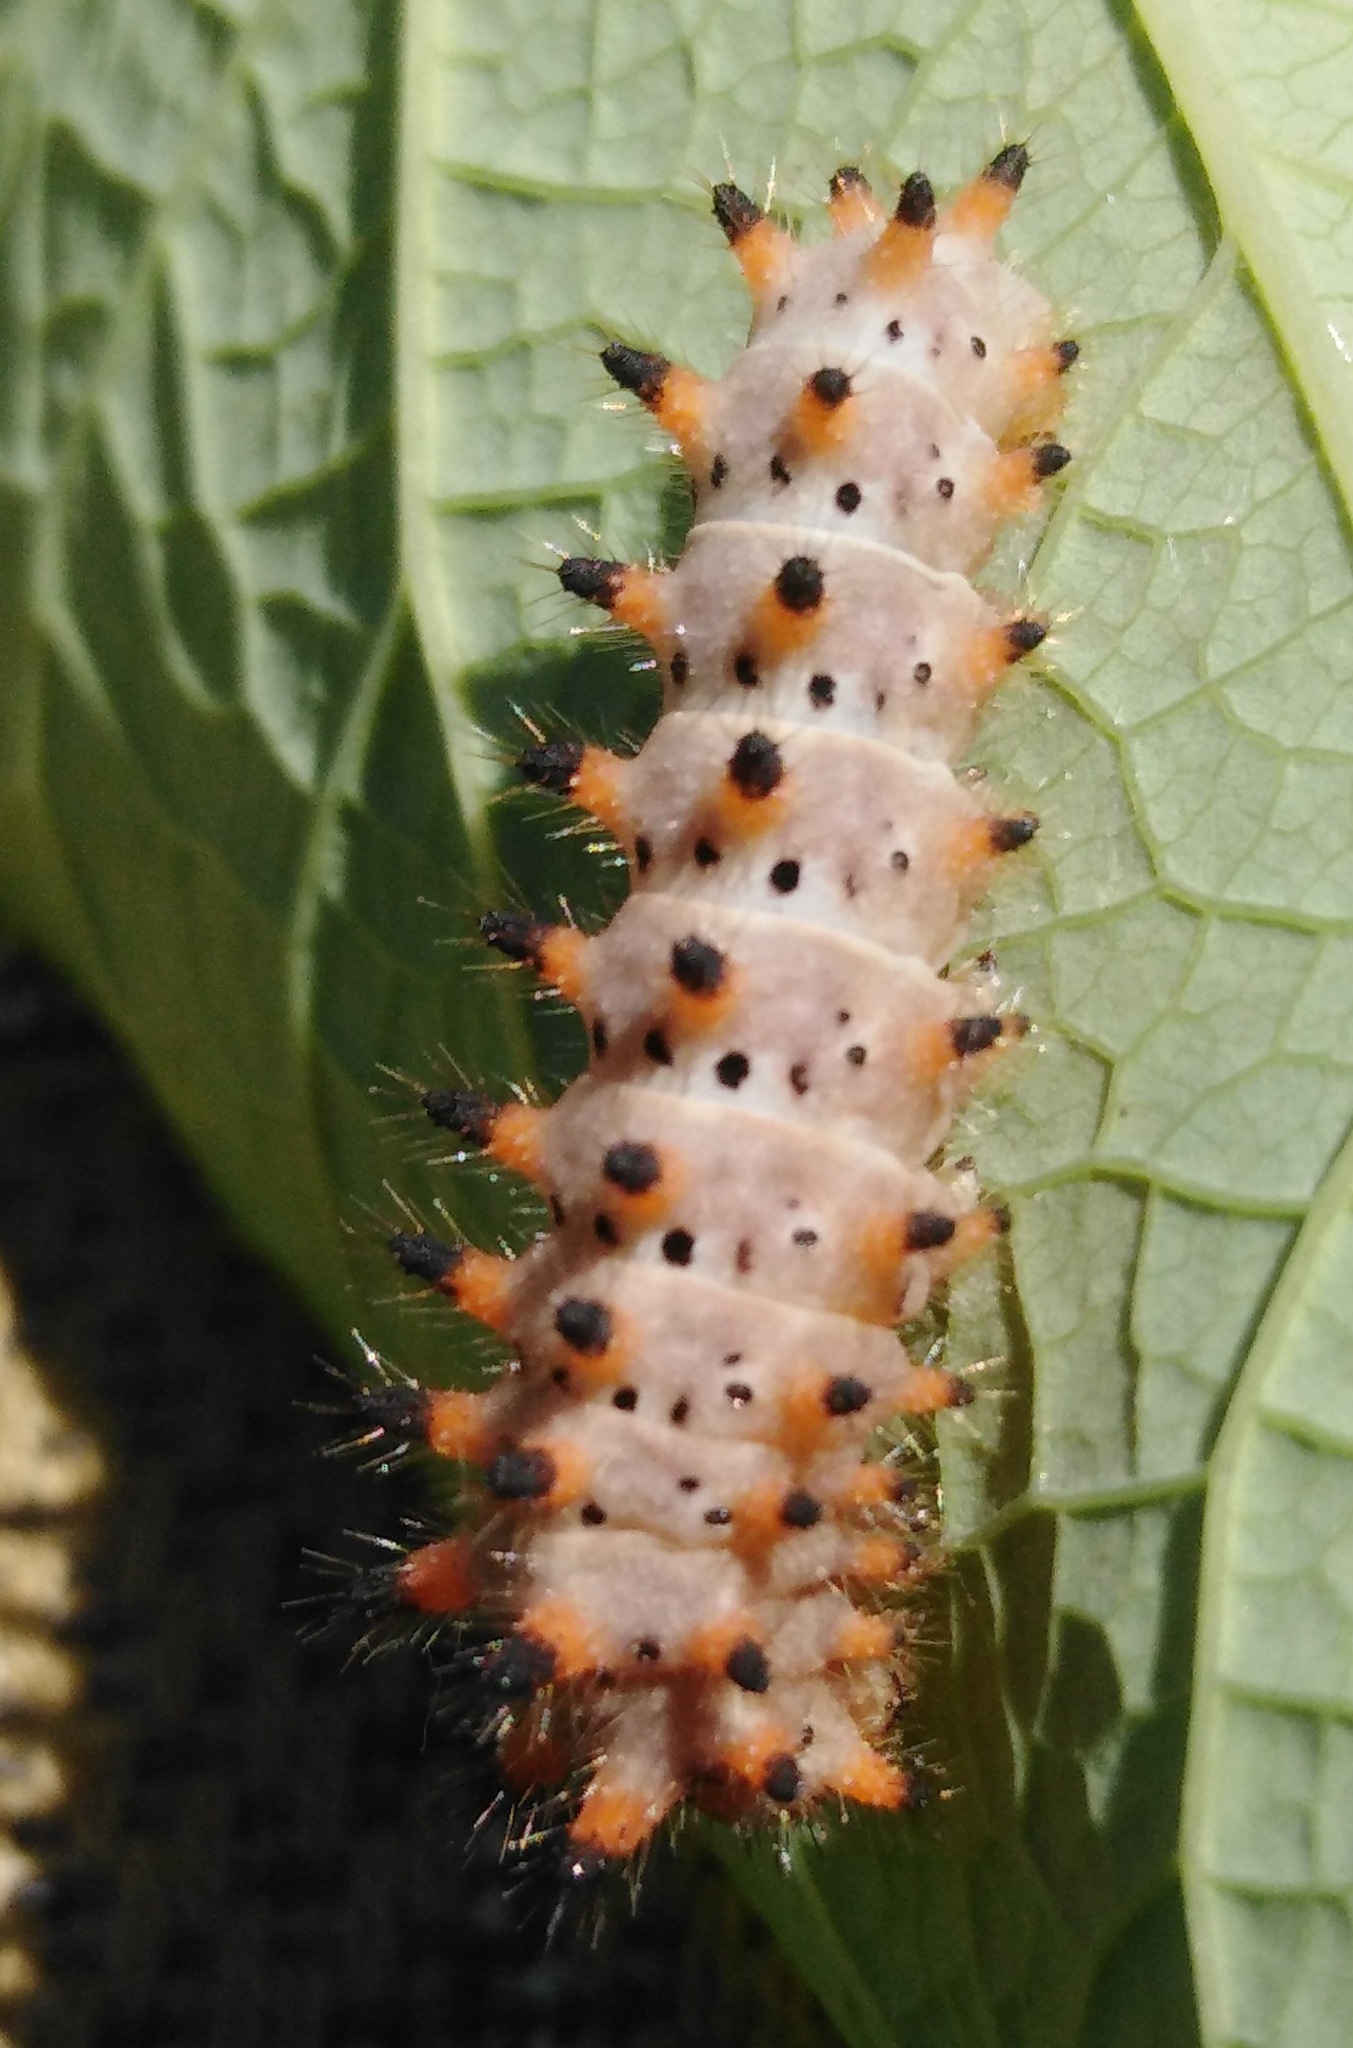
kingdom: Animalia
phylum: Arthropoda
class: Insecta
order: Lepidoptera
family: Papilionidae
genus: Zerynthia
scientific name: Zerynthia polyxena
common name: Southern festoon
